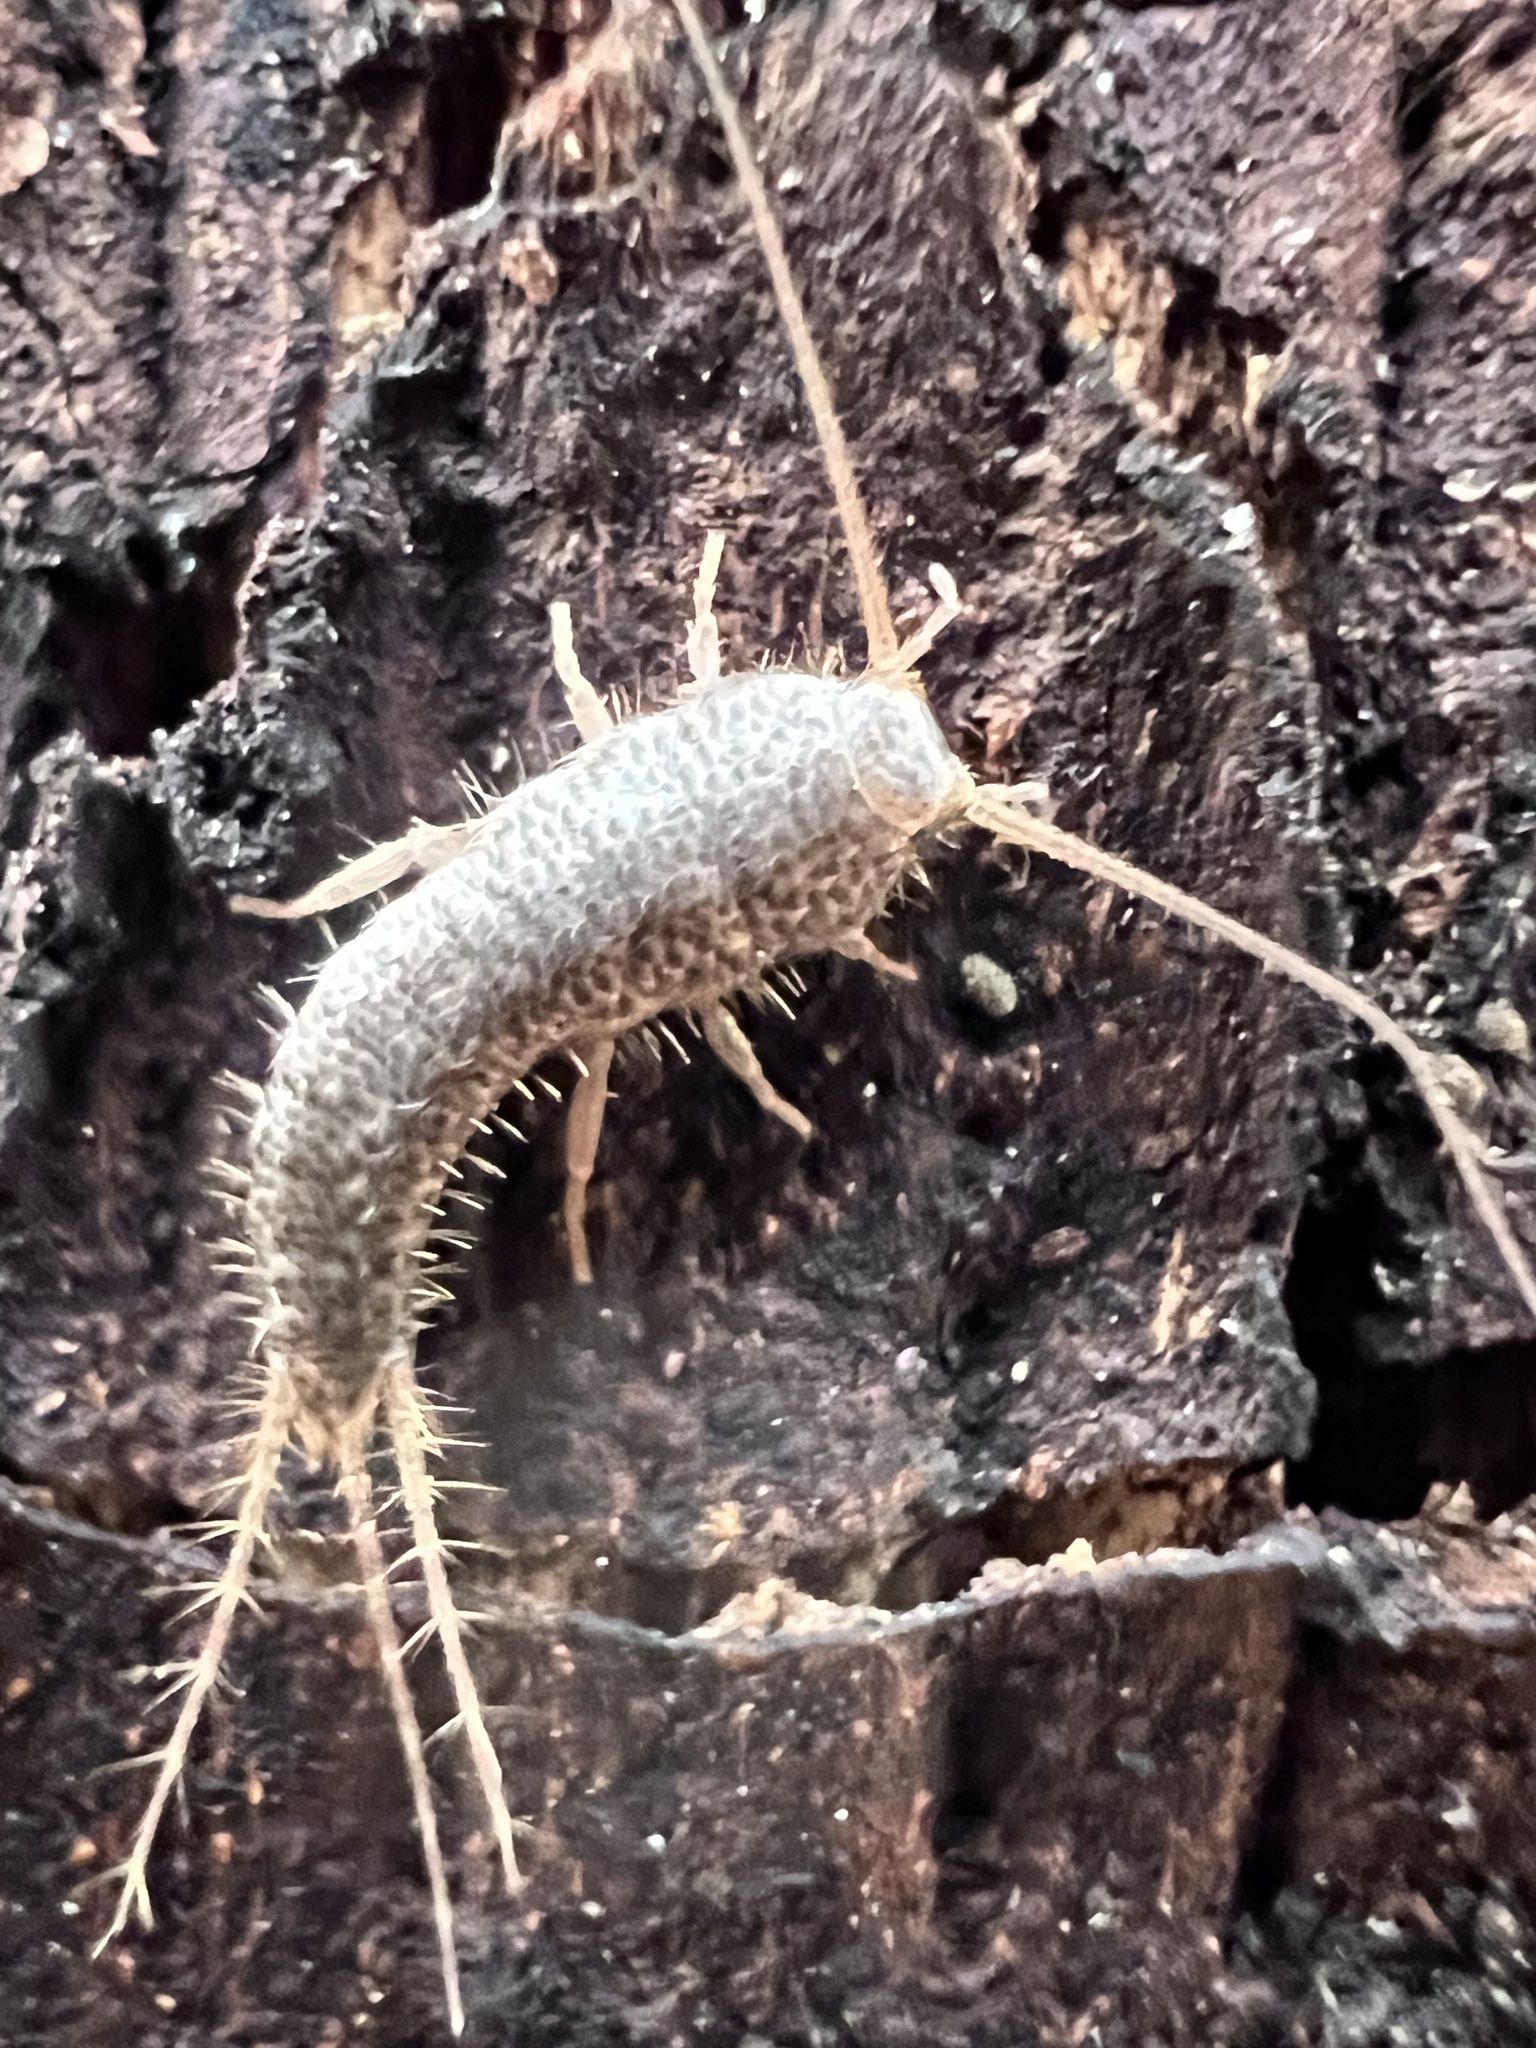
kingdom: Animalia
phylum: Arthropoda
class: Insecta
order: Zygentoma
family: Lepismatidae
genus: Allacrotelsa
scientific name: Allacrotelsa spinulata
